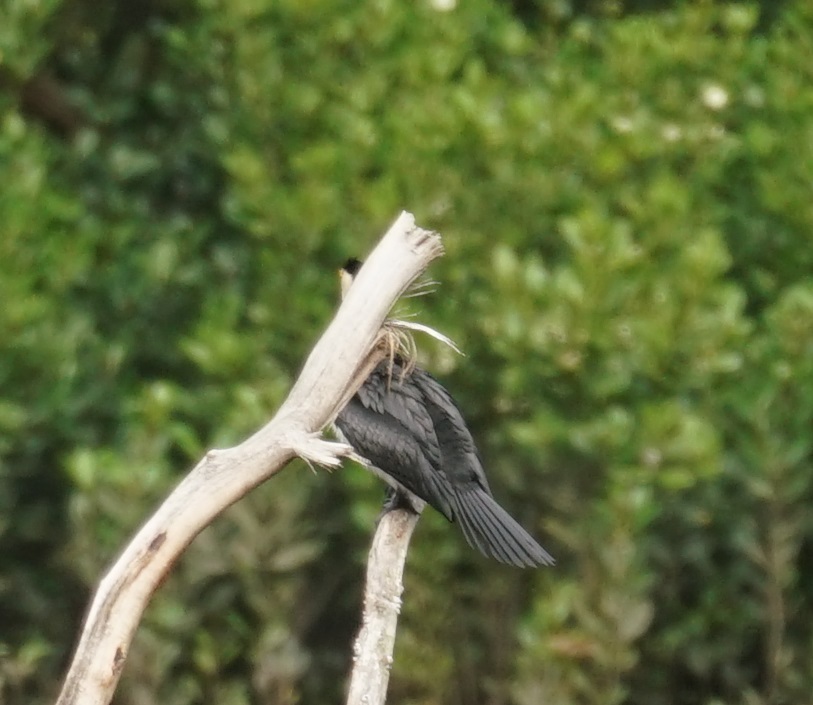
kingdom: Animalia
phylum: Chordata
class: Aves
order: Suliformes
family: Phalacrocoracidae
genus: Microcarbo
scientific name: Microcarbo melanoleucos
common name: Little pied cormorant
